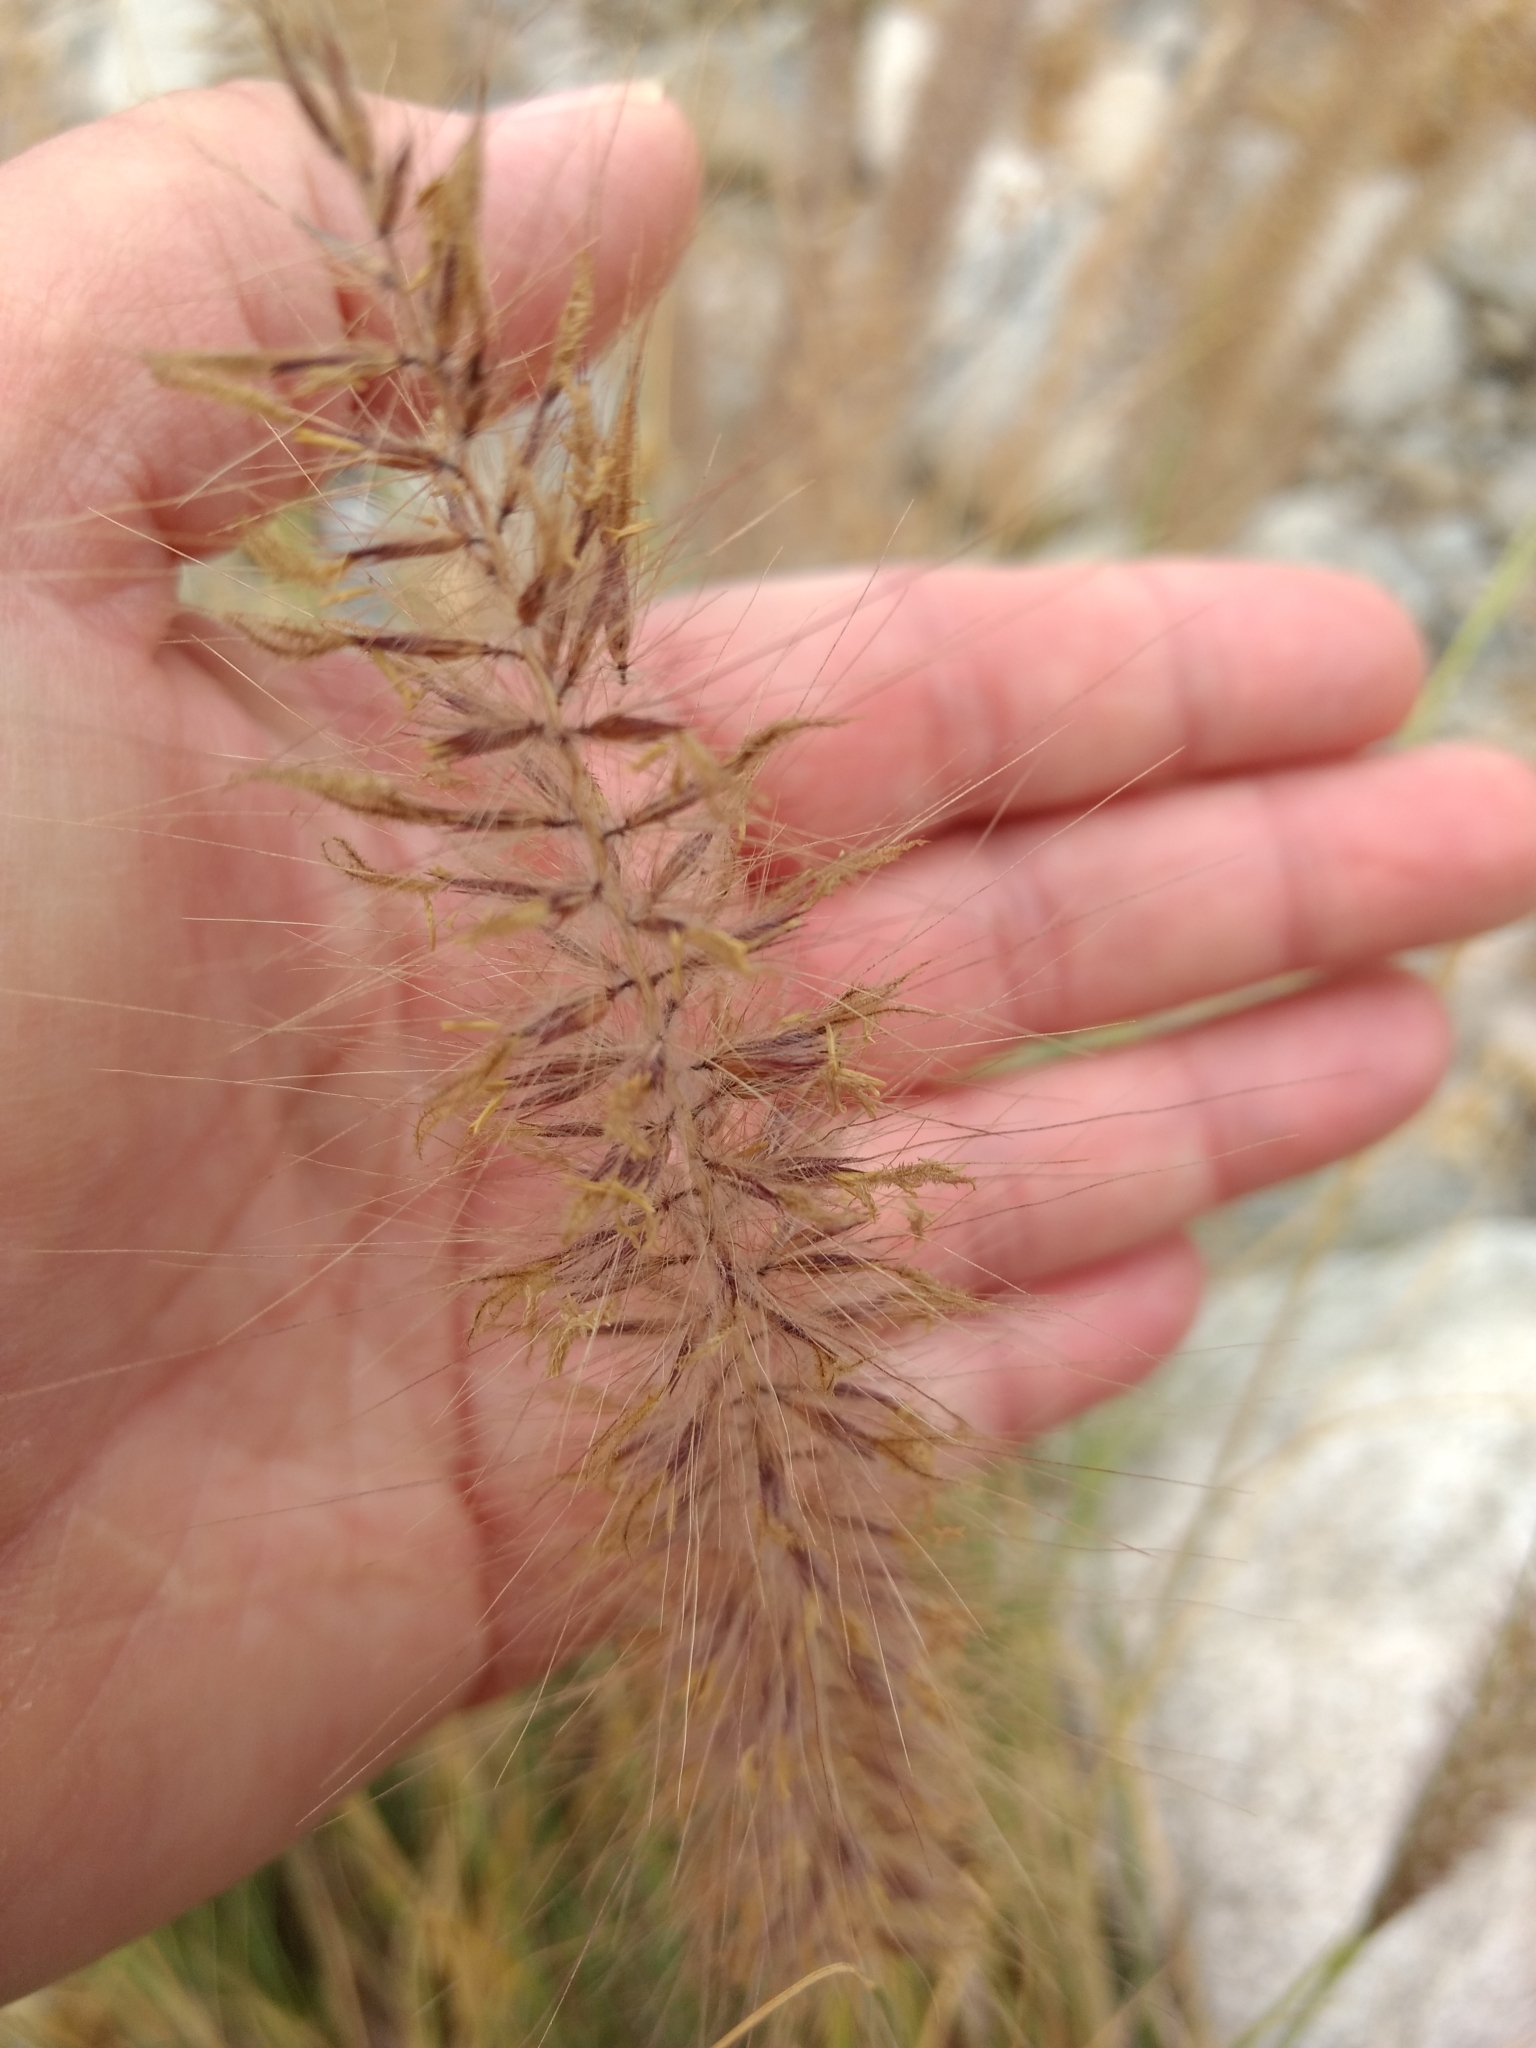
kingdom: Plantae
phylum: Tracheophyta
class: Liliopsida
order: Poales
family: Poaceae
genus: Cenchrus
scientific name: Cenchrus setaceus
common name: Crimson fountaingrass
